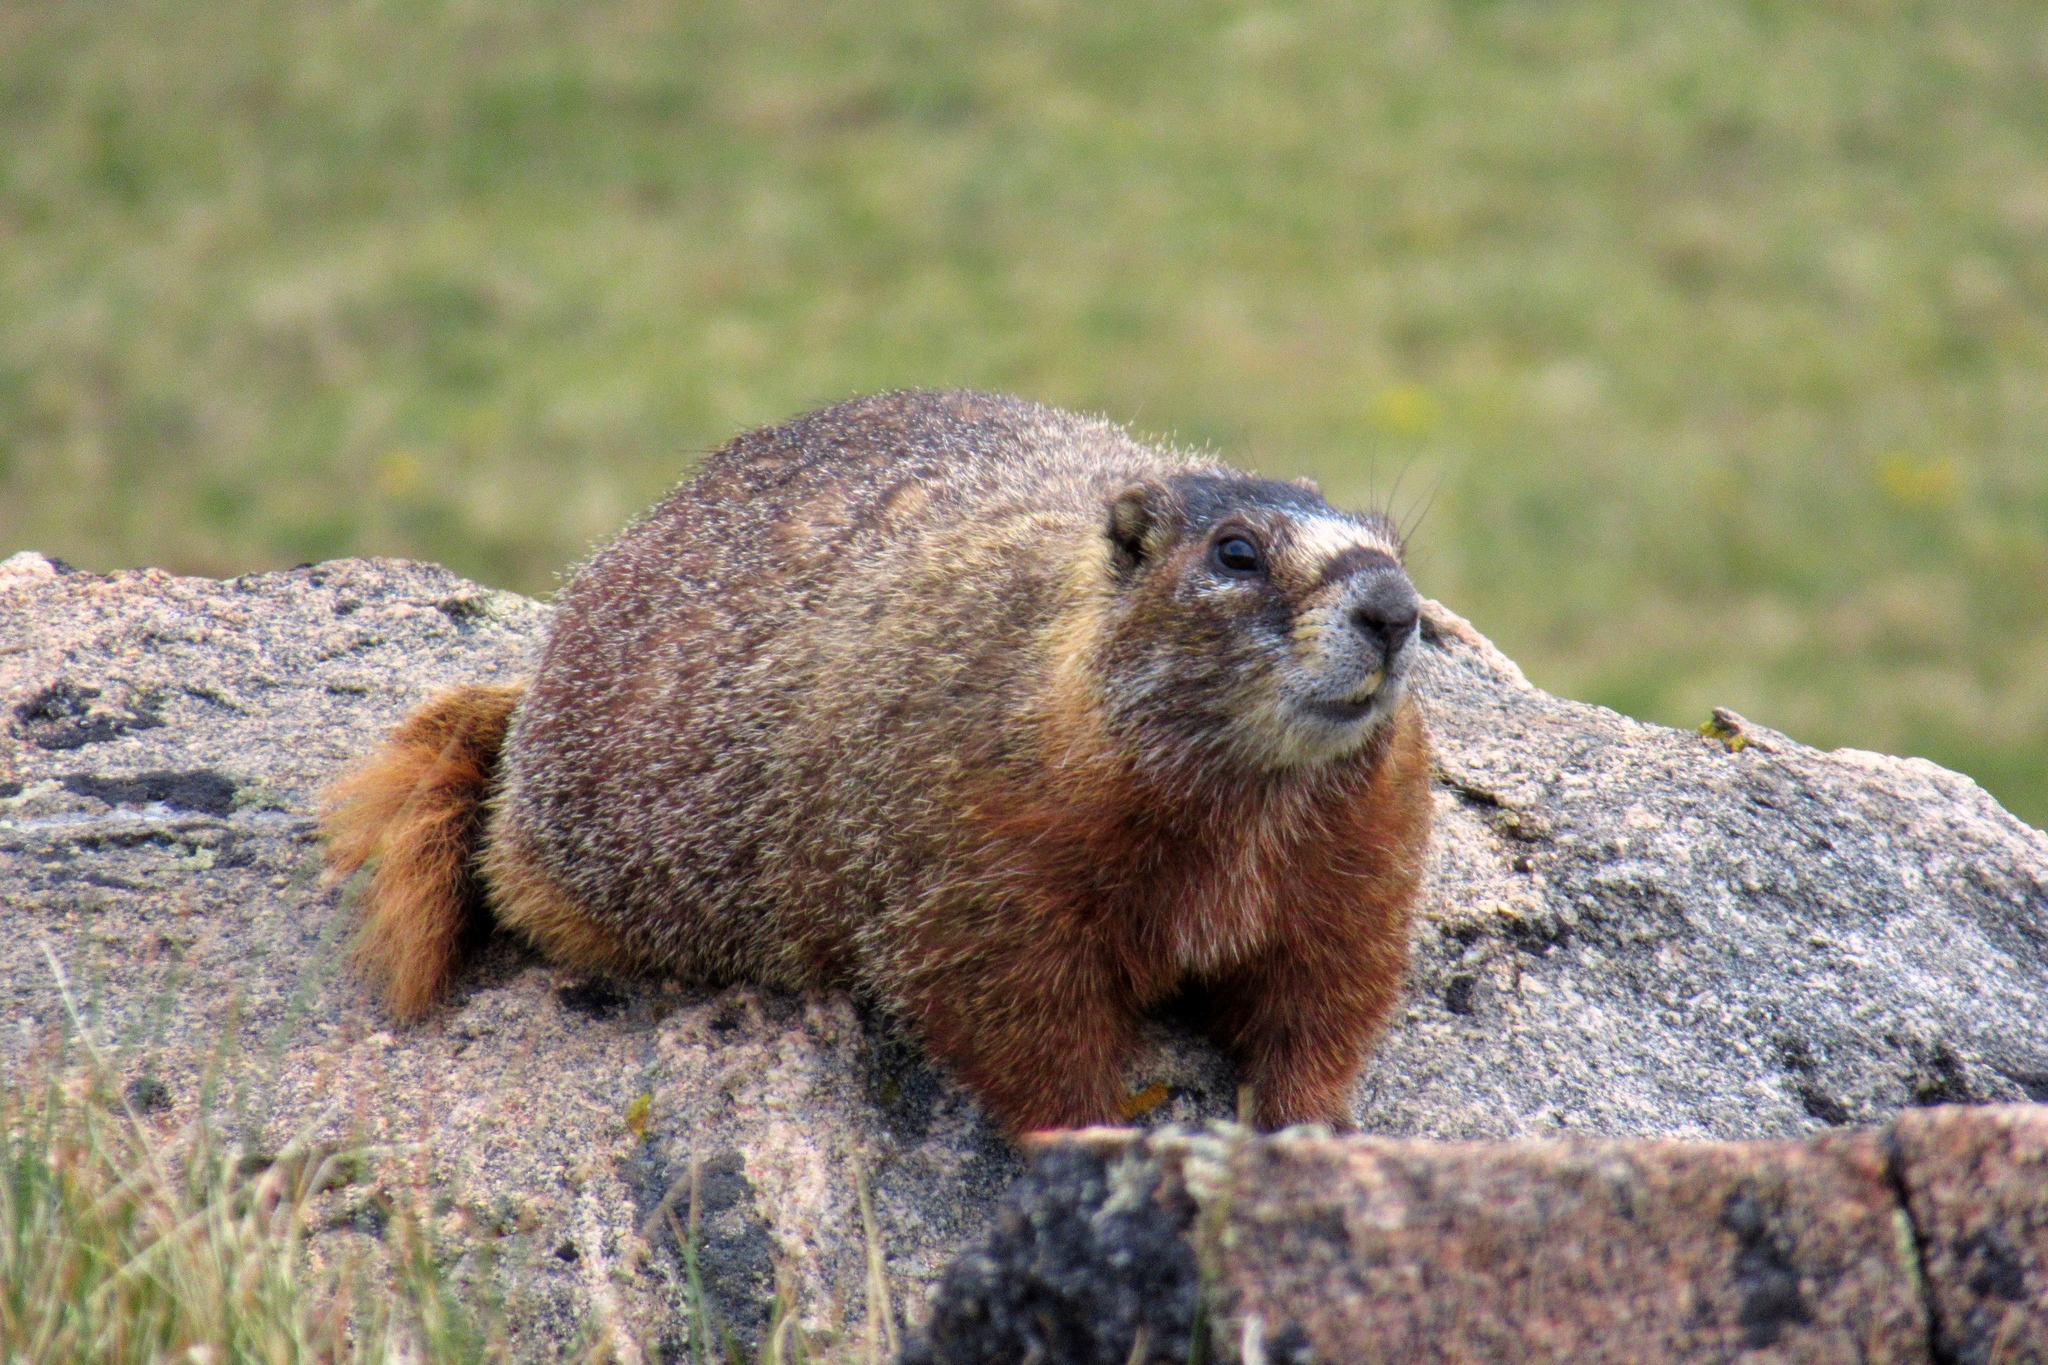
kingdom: Animalia
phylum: Chordata
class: Mammalia
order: Rodentia
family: Sciuridae
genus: Marmota
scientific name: Marmota flaviventris
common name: Yellow-bellied marmot
